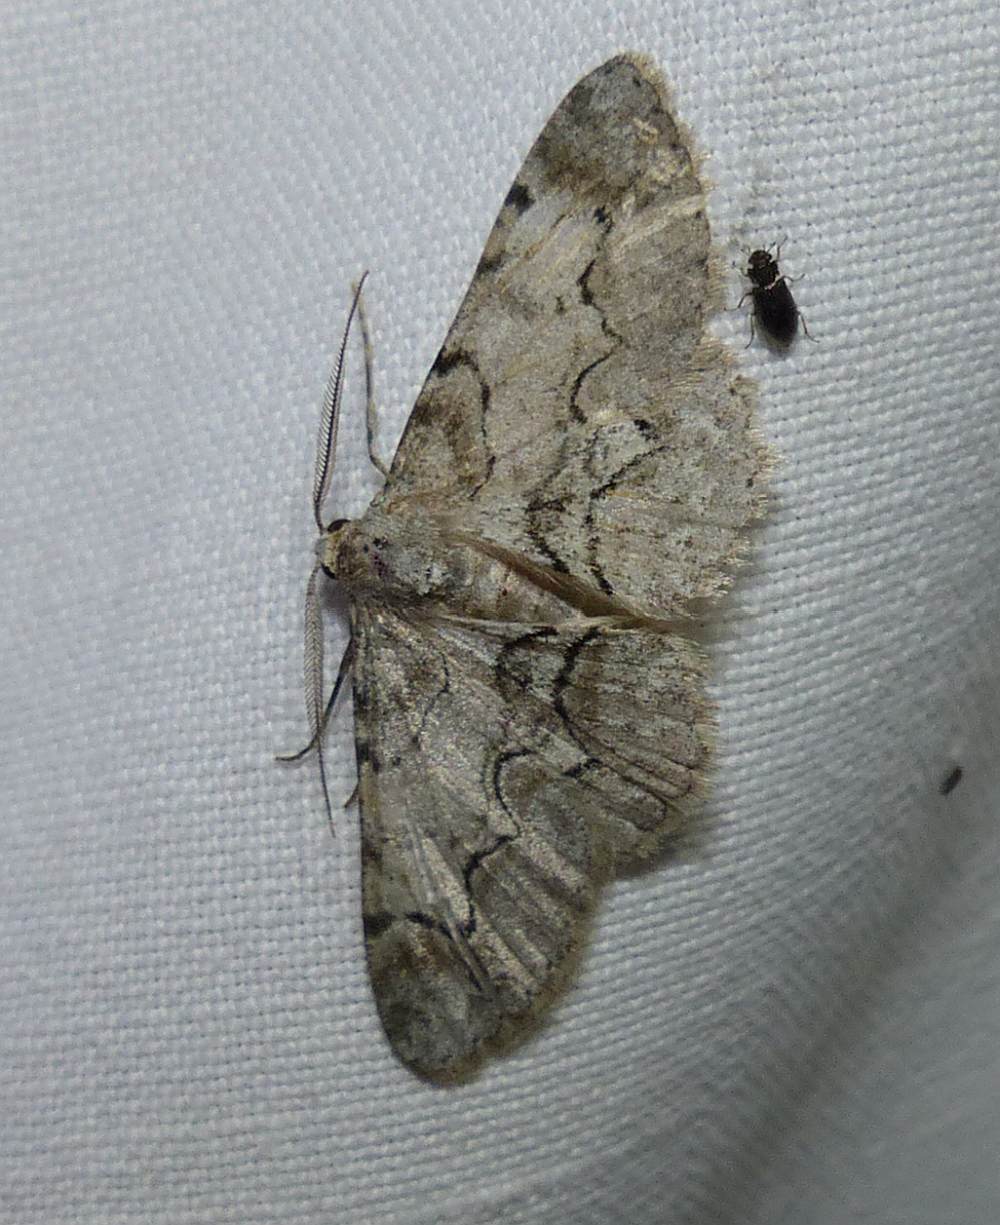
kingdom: Animalia
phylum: Arthropoda
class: Insecta
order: Lepidoptera
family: Geometridae
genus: Iridopsis
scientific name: Iridopsis larvaria
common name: Bent-line gray
